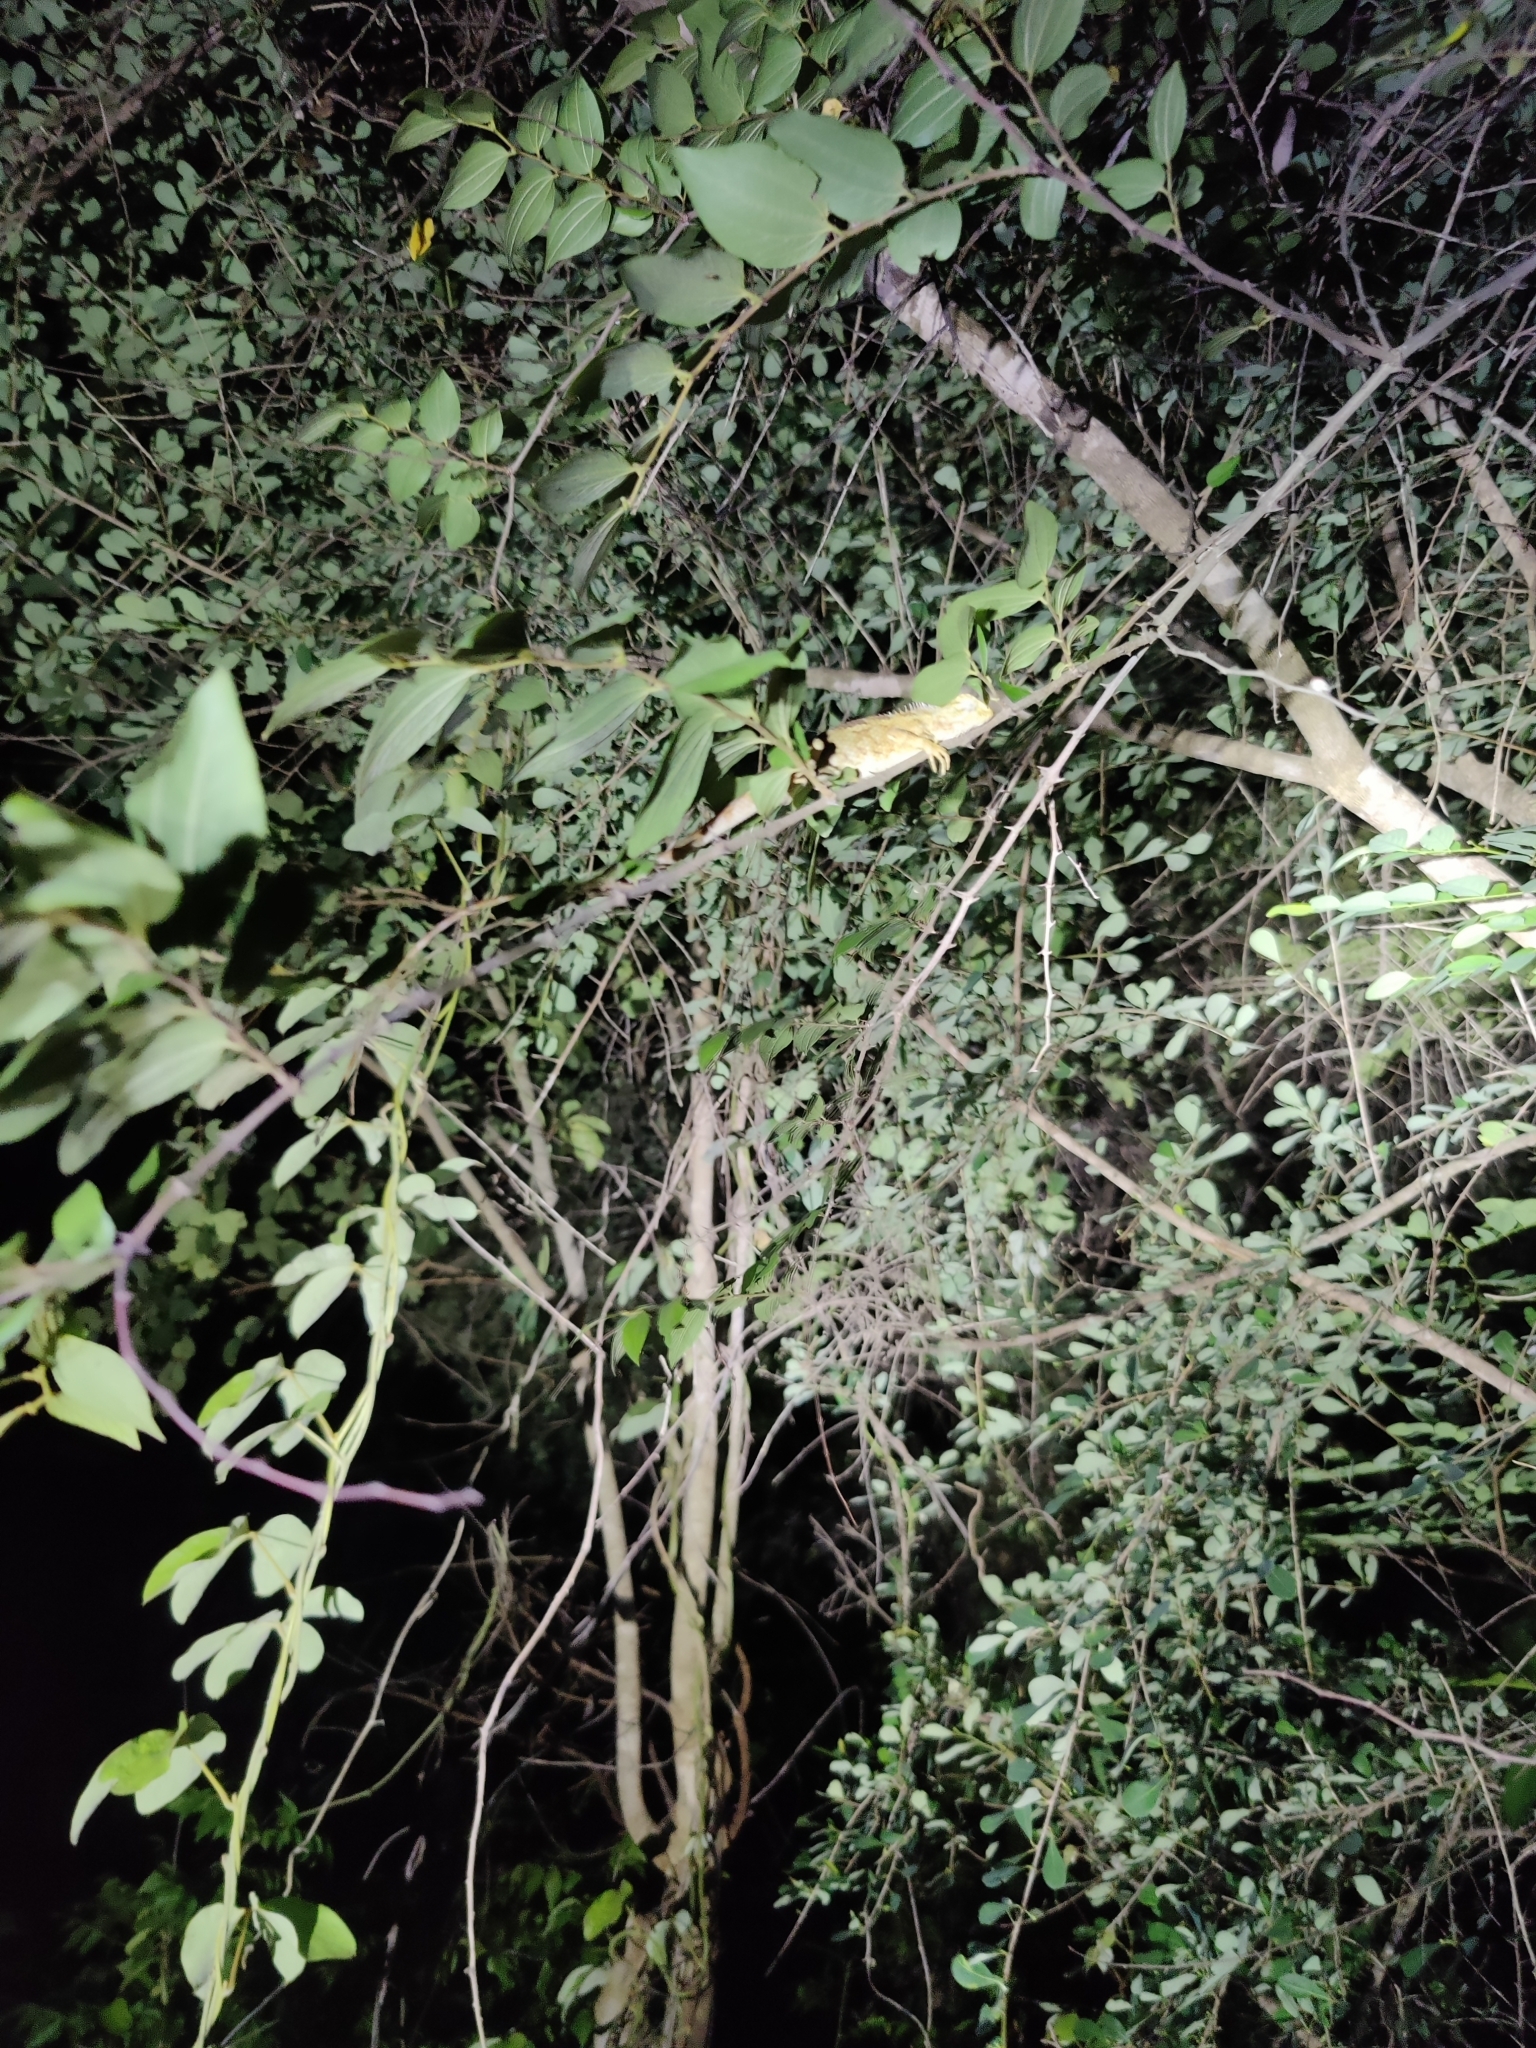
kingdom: Animalia
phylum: Chordata
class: Squamata
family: Agamidae
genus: Calotes
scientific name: Calotes versicolor
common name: Oriental garden lizard
